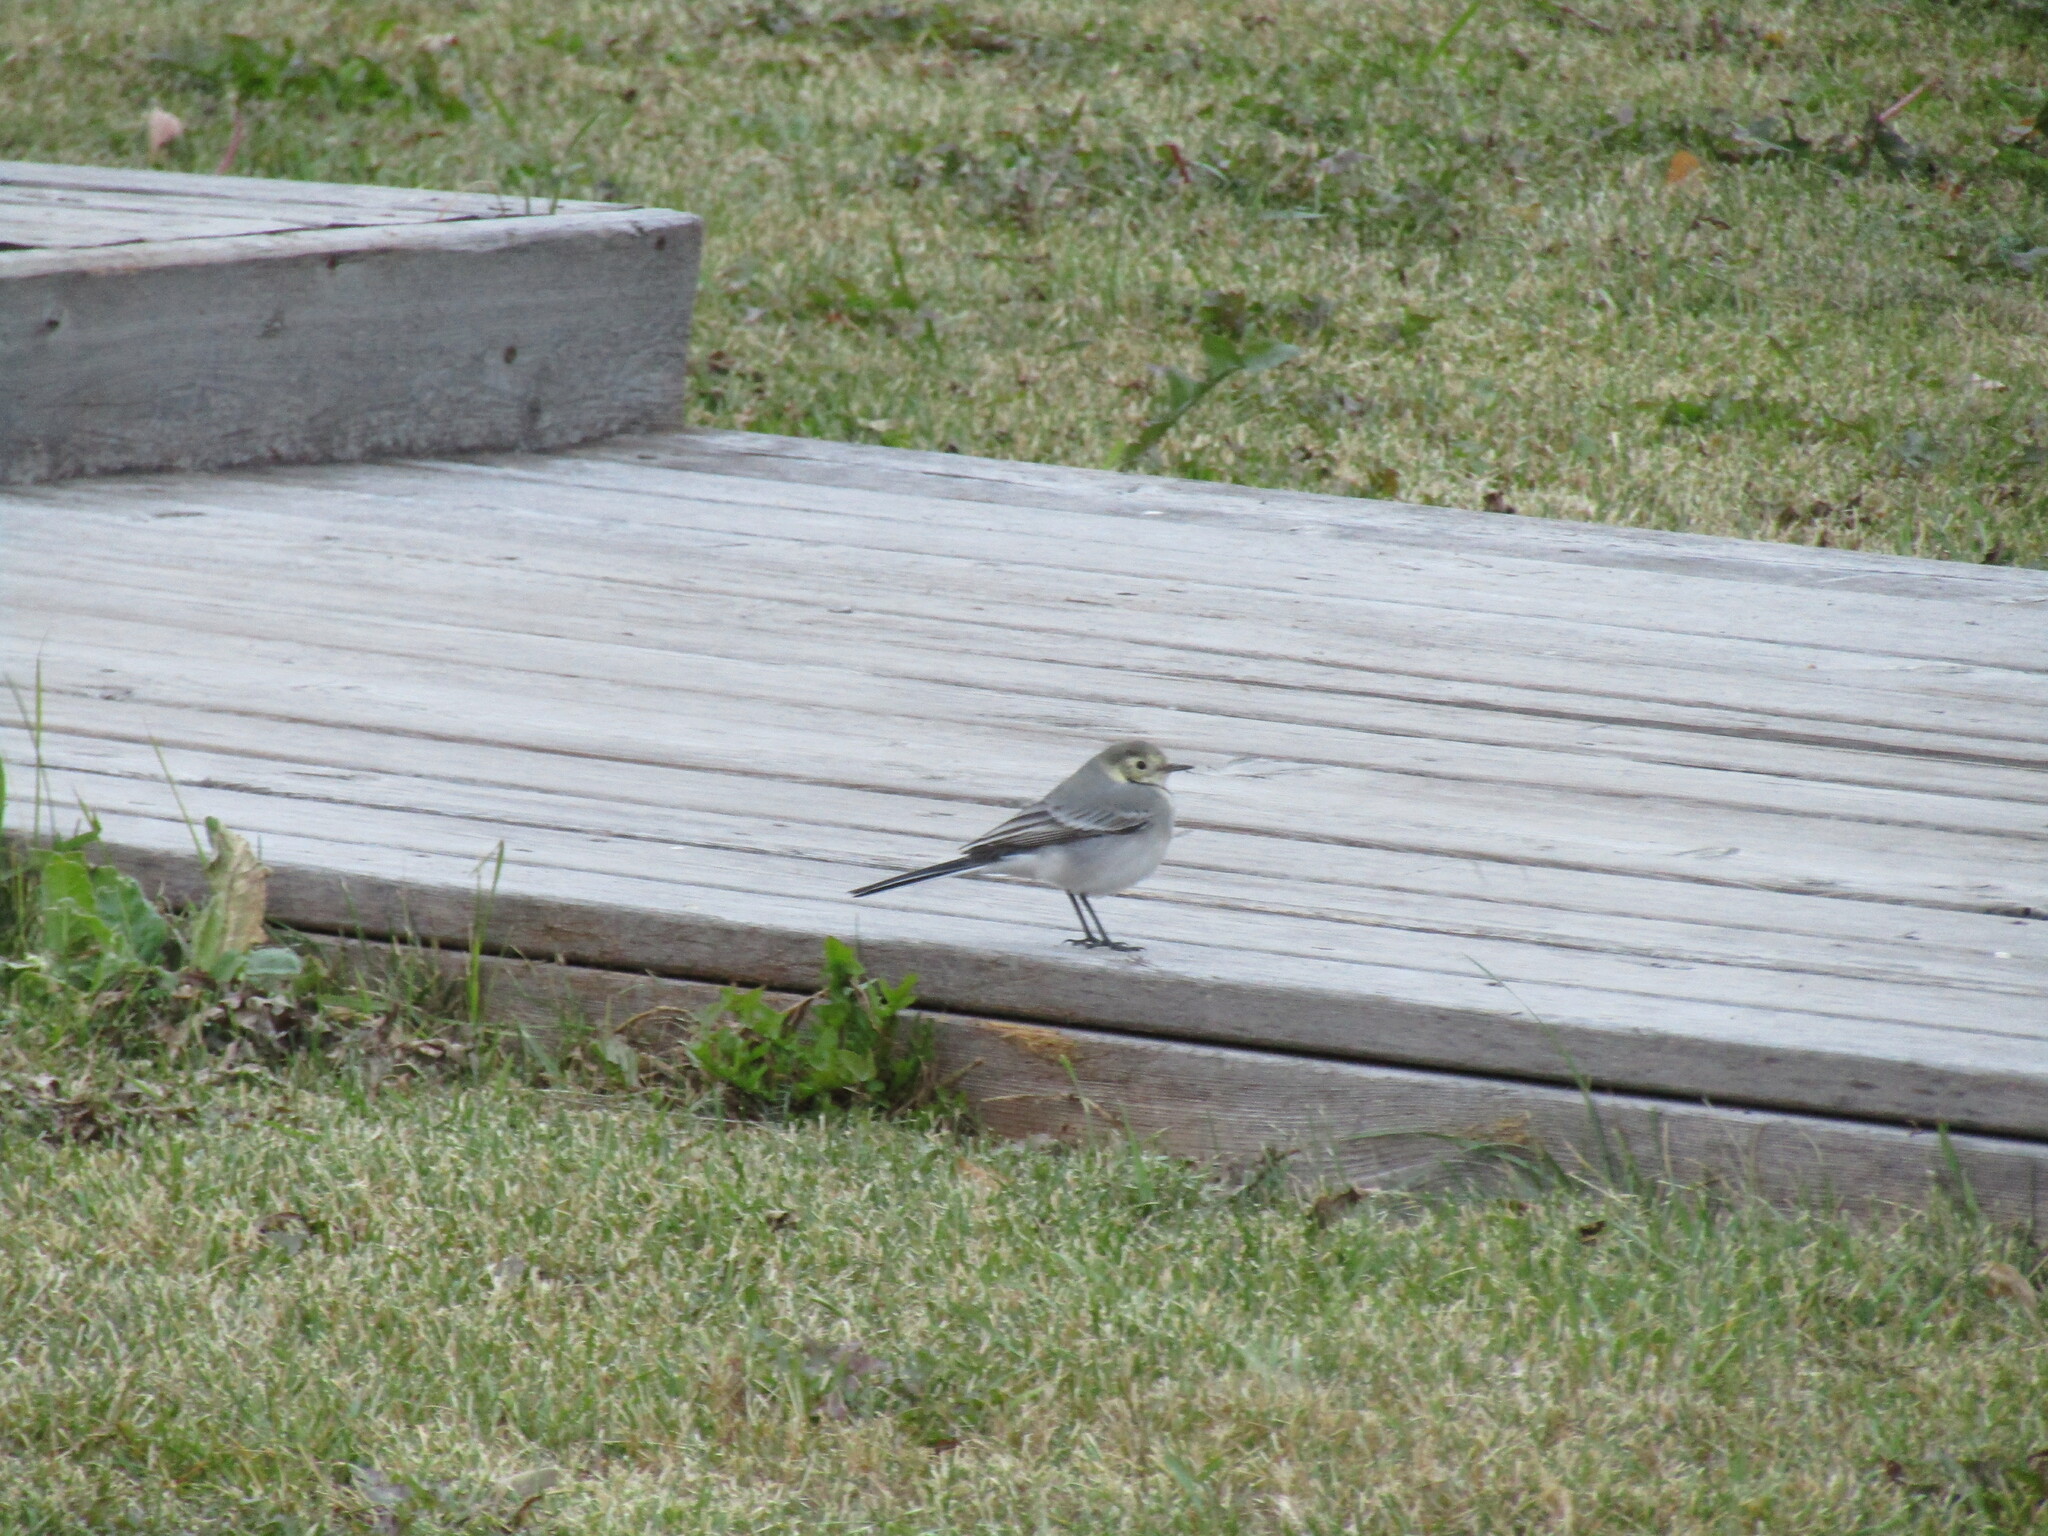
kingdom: Animalia
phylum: Chordata
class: Aves
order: Passeriformes
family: Motacillidae
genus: Motacilla
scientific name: Motacilla alba
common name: White wagtail
